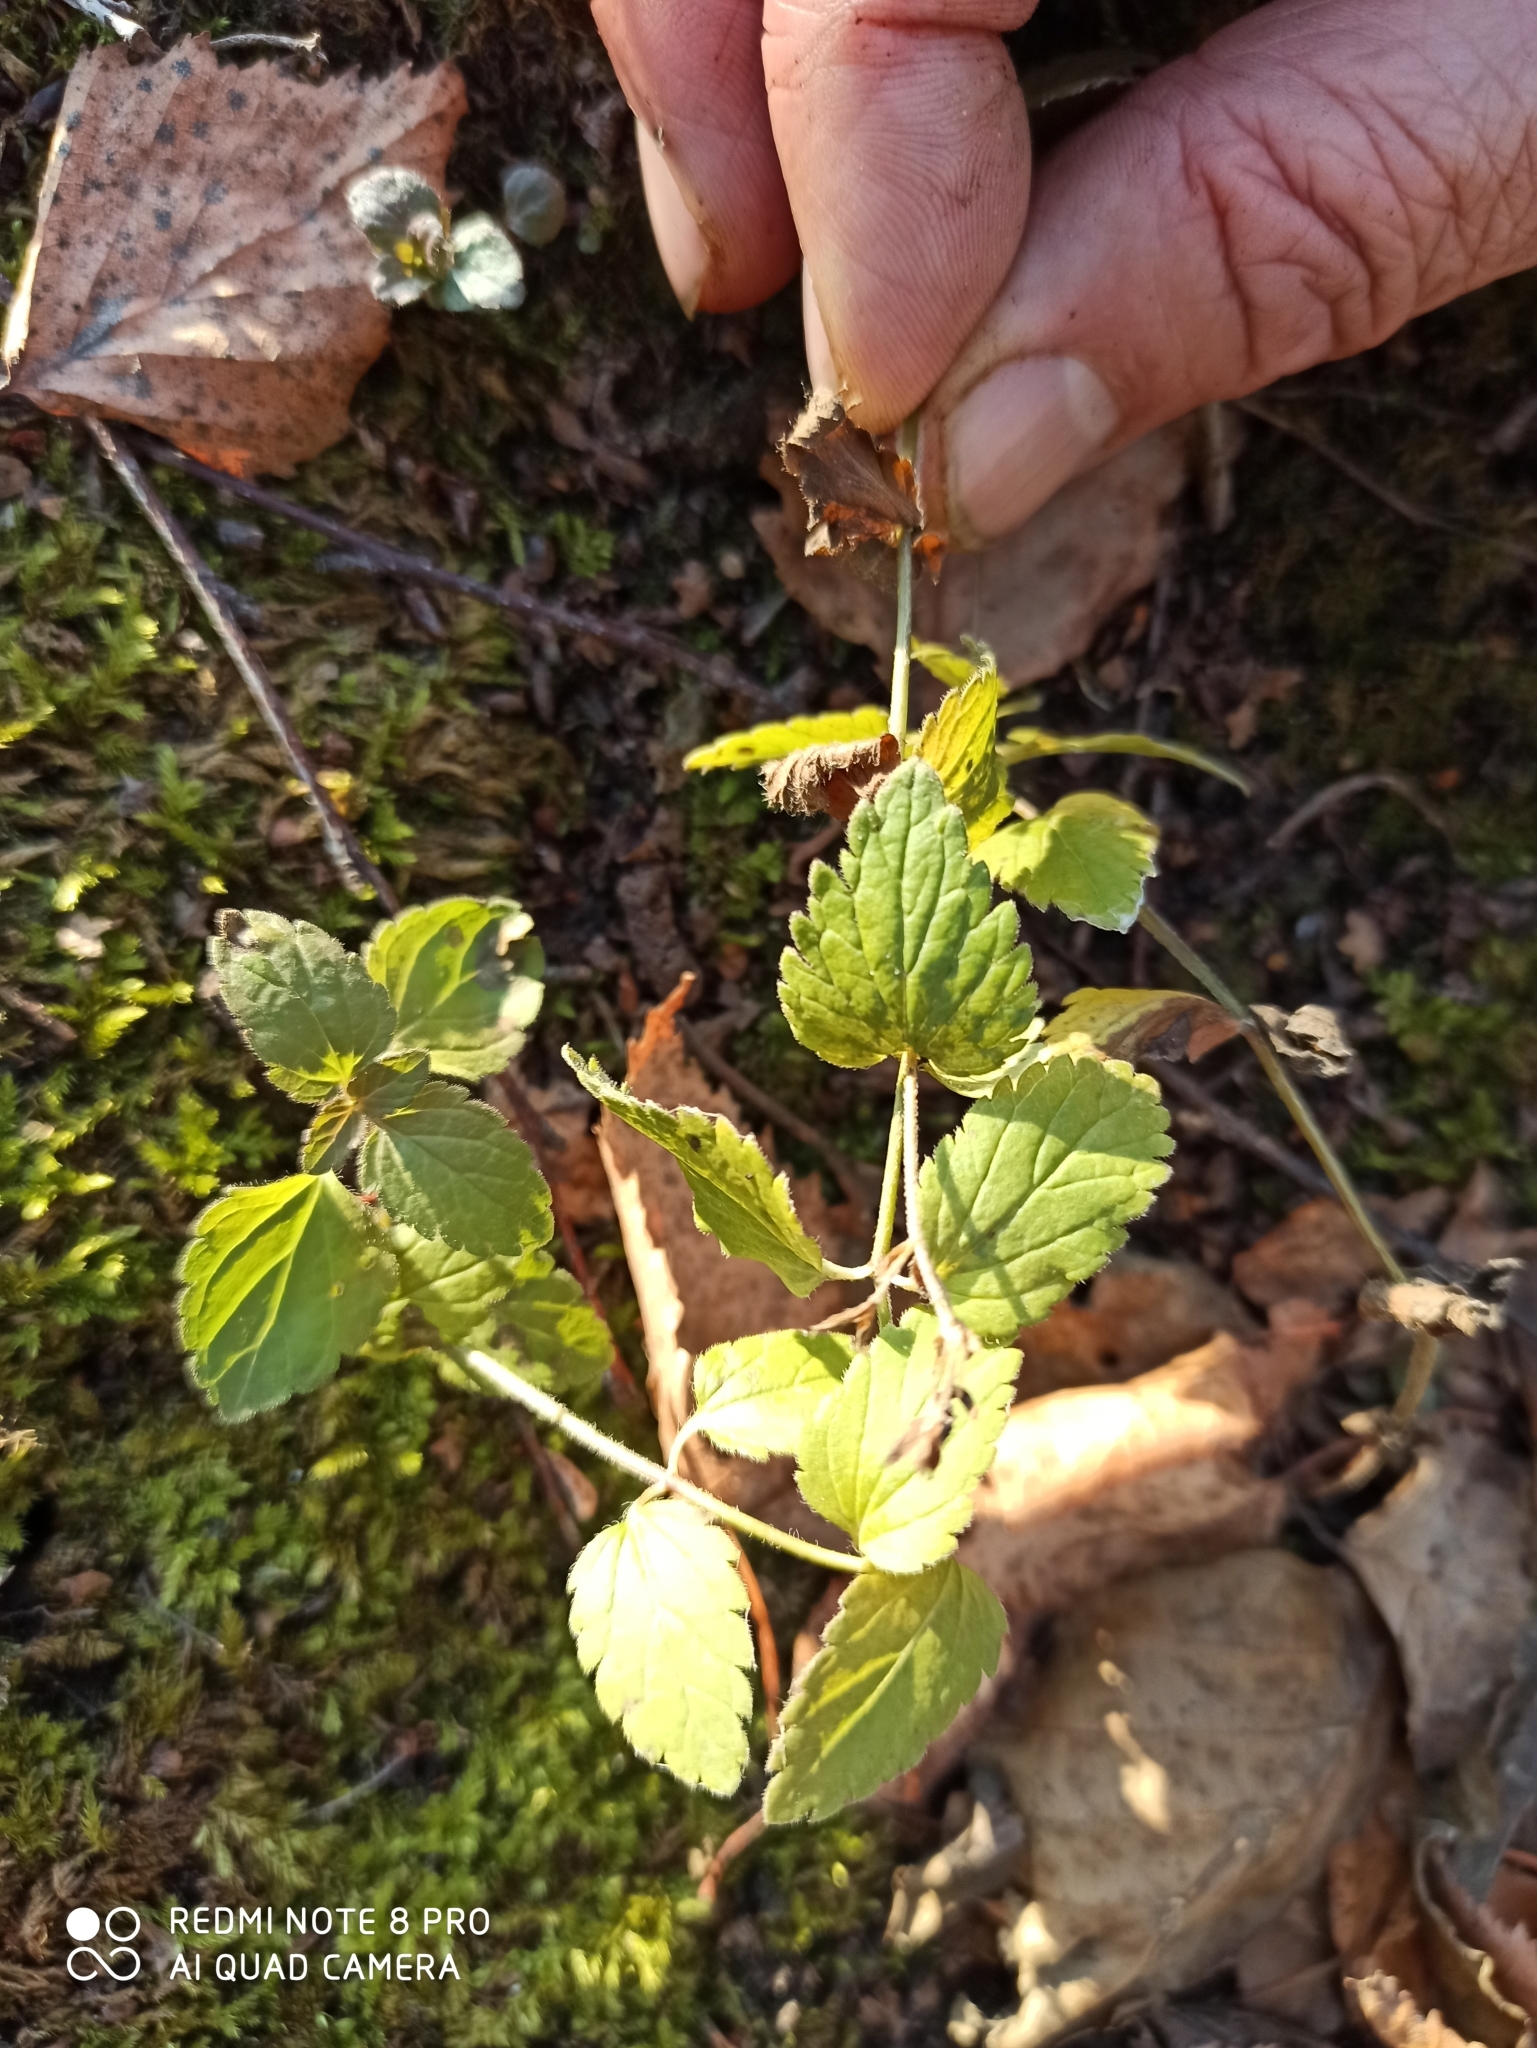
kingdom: Plantae
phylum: Tracheophyta
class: Magnoliopsida
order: Lamiales
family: Plantaginaceae
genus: Veronica
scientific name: Veronica chamaedrys
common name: Germander speedwell
